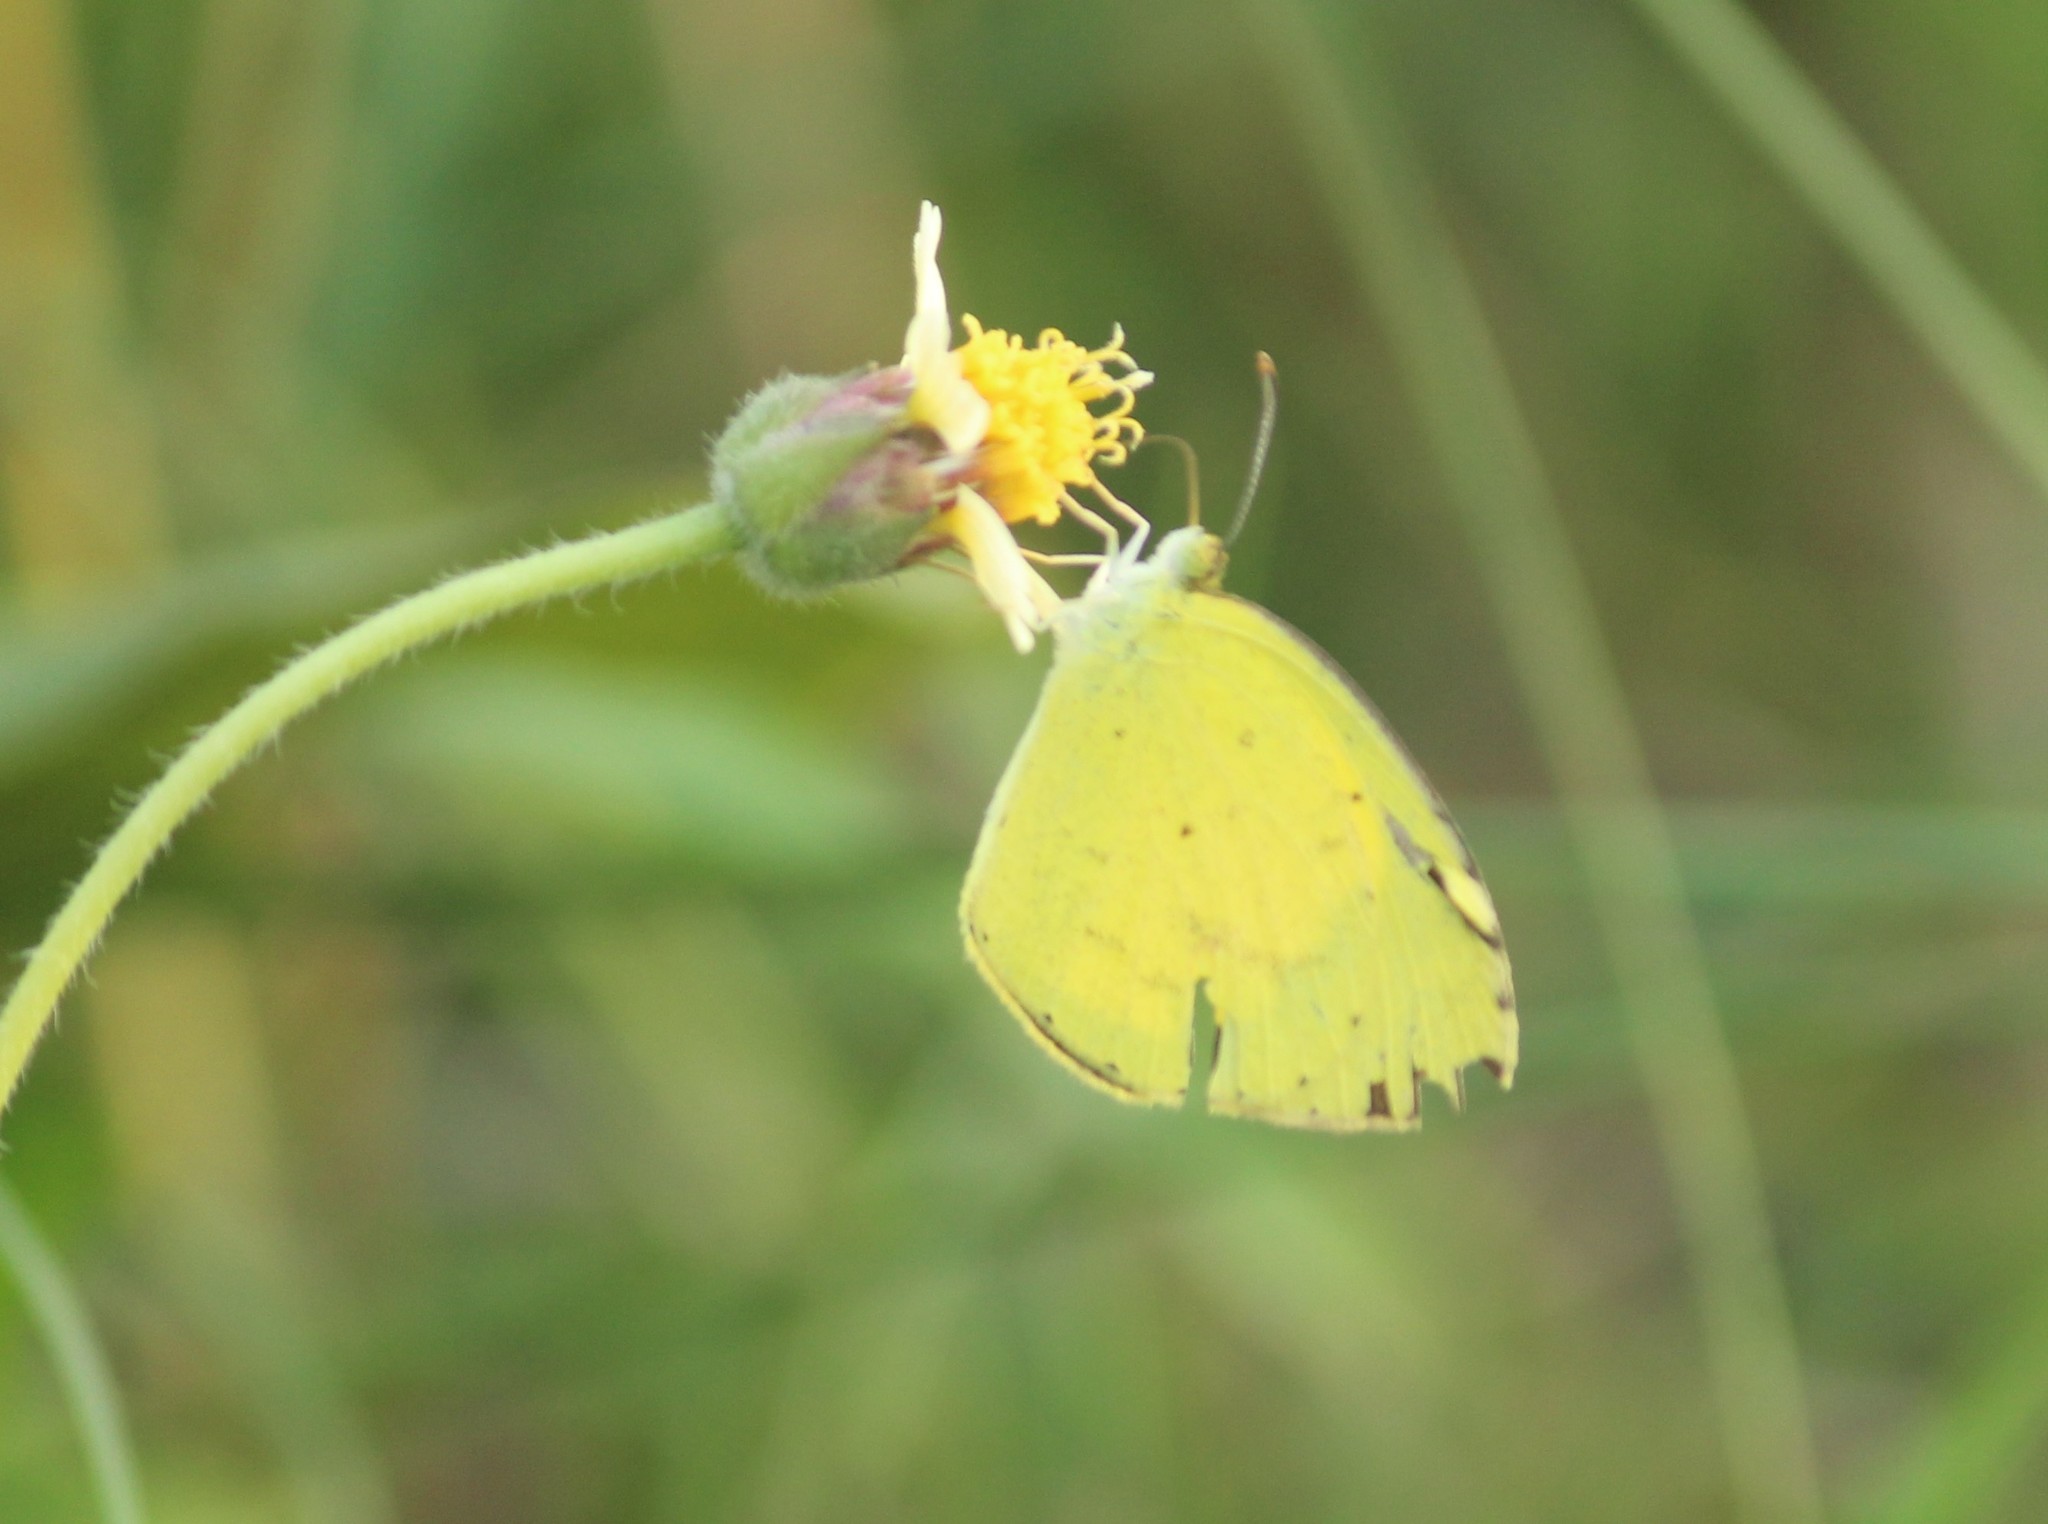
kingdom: Animalia
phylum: Arthropoda
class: Insecta
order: Lepidoptera
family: Pieridae
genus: Eurema
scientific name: Eurema brigitta
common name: Small grass yellow
